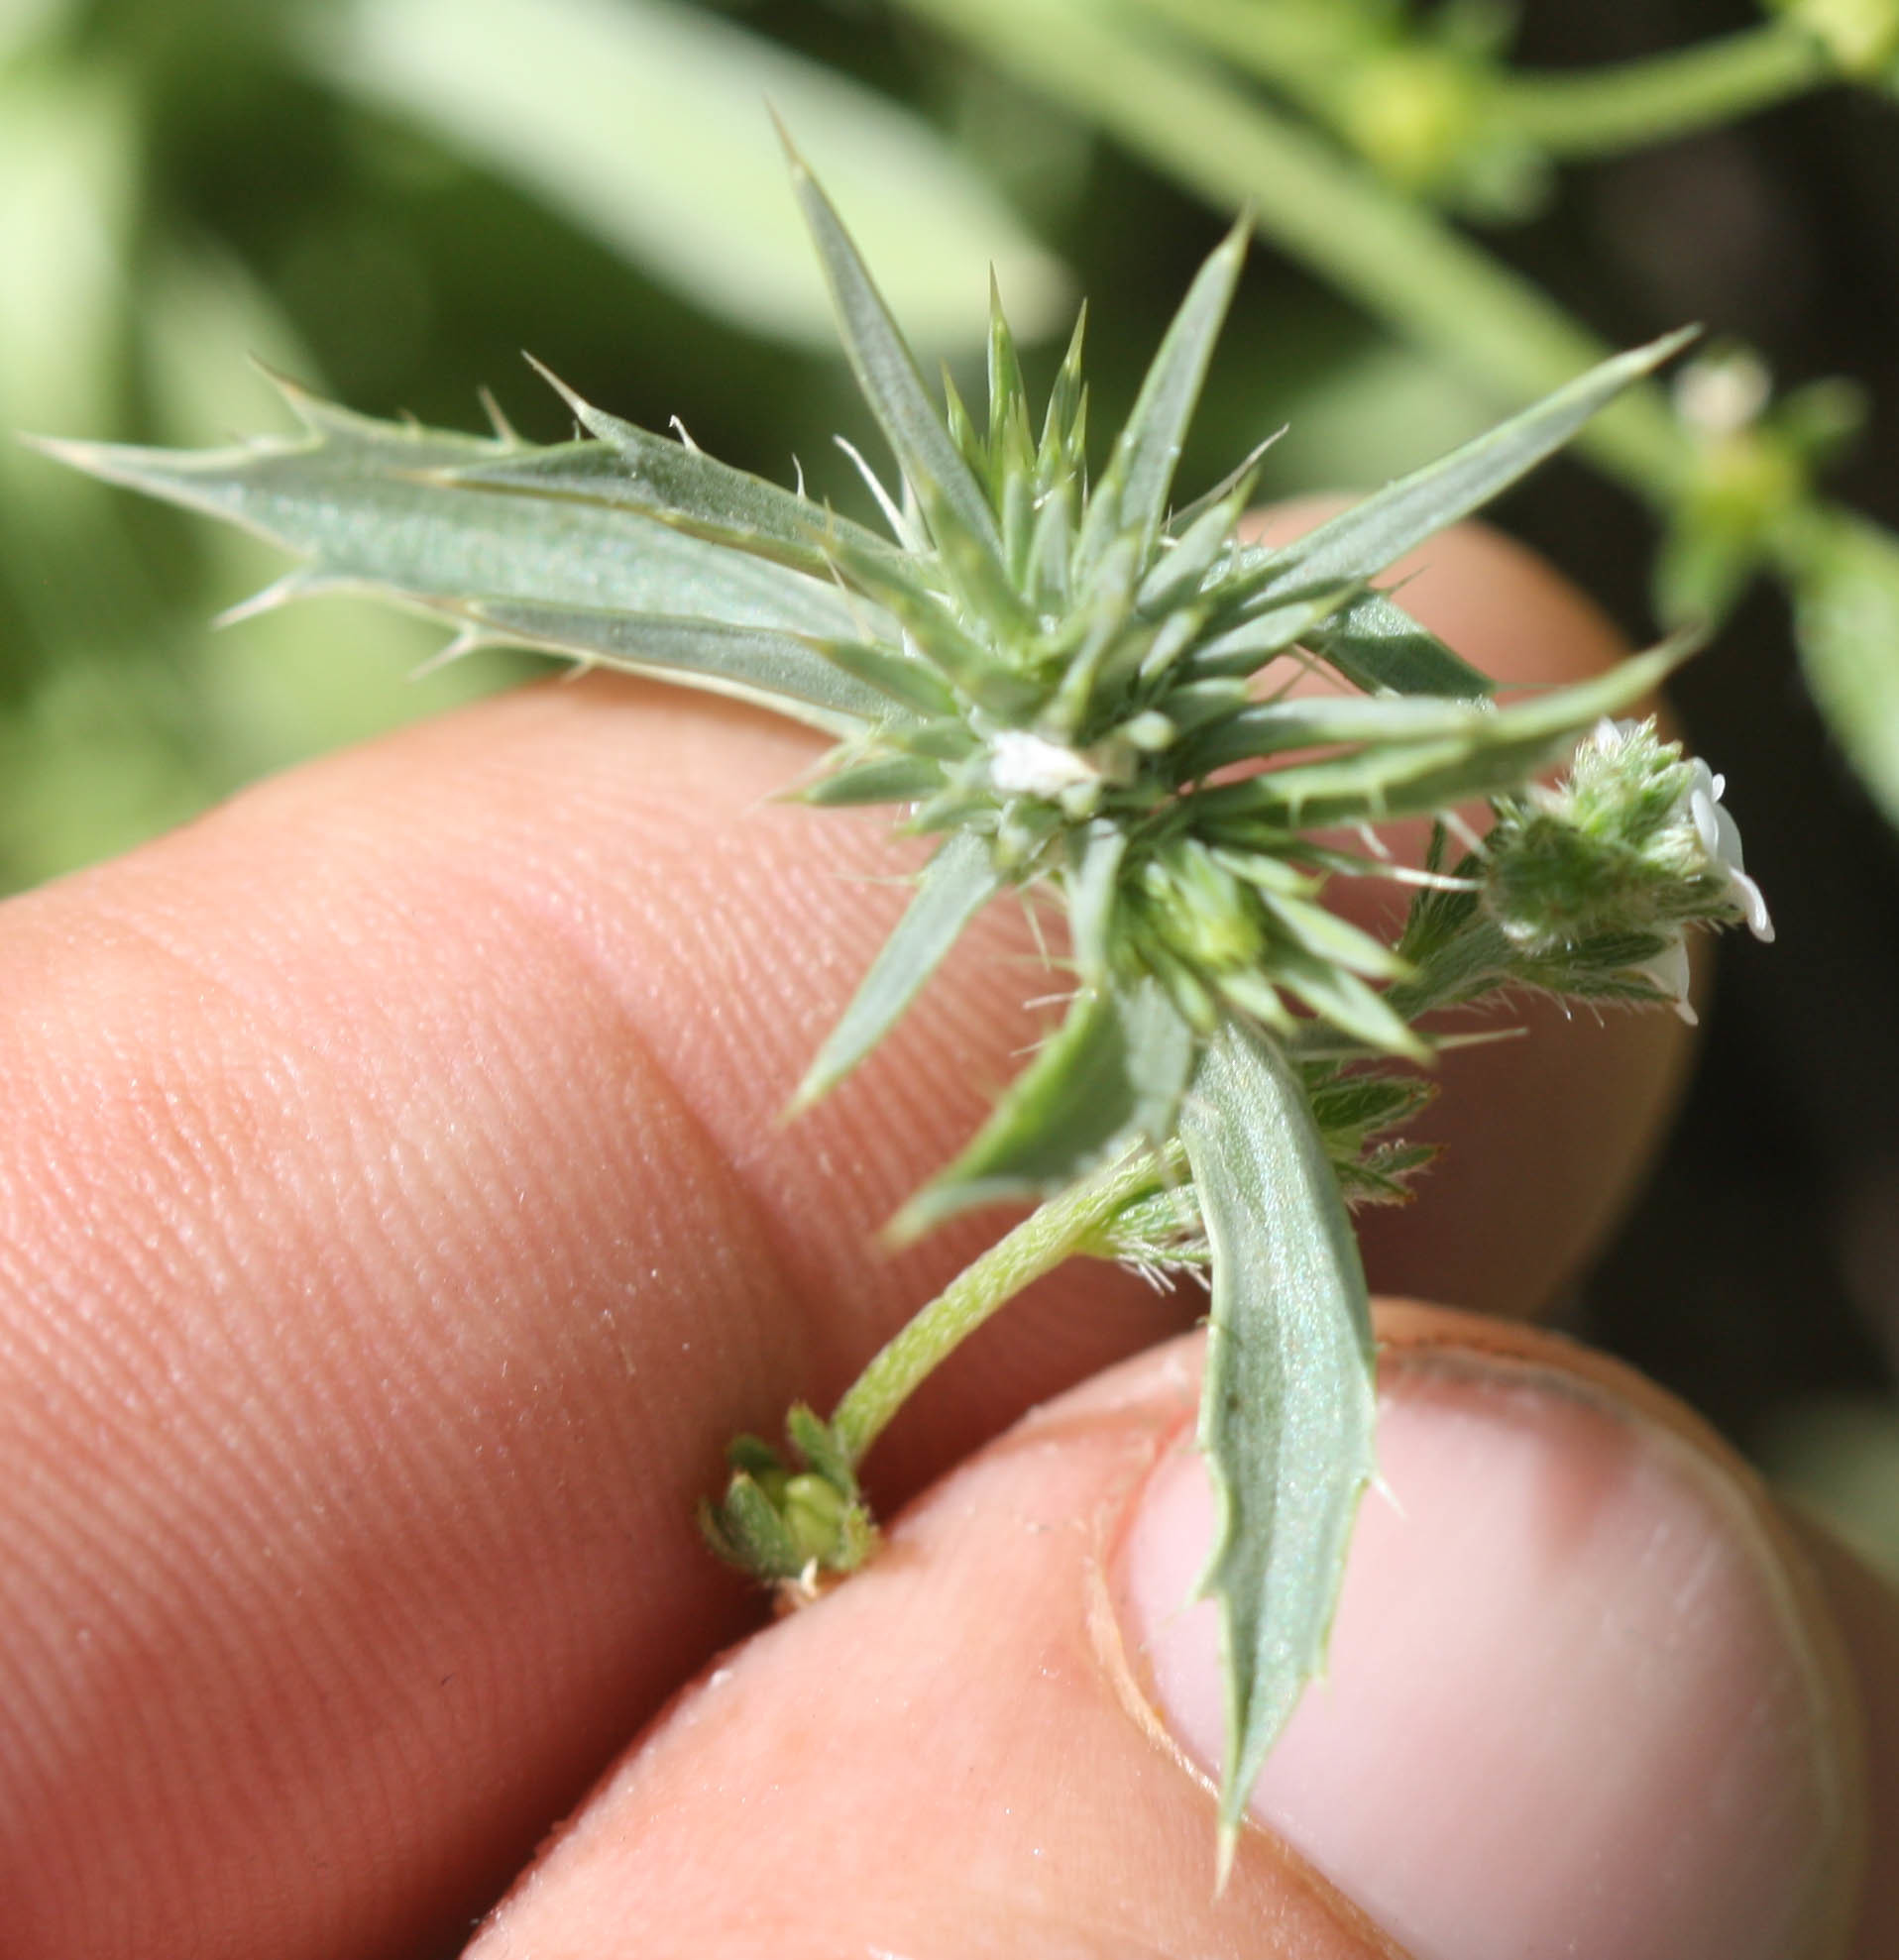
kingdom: Plantae
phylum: Tracheophyta
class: Magnoliopsida
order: Apiales
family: Apiaceae
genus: Eryngium
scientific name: Eryngium aristulatum
